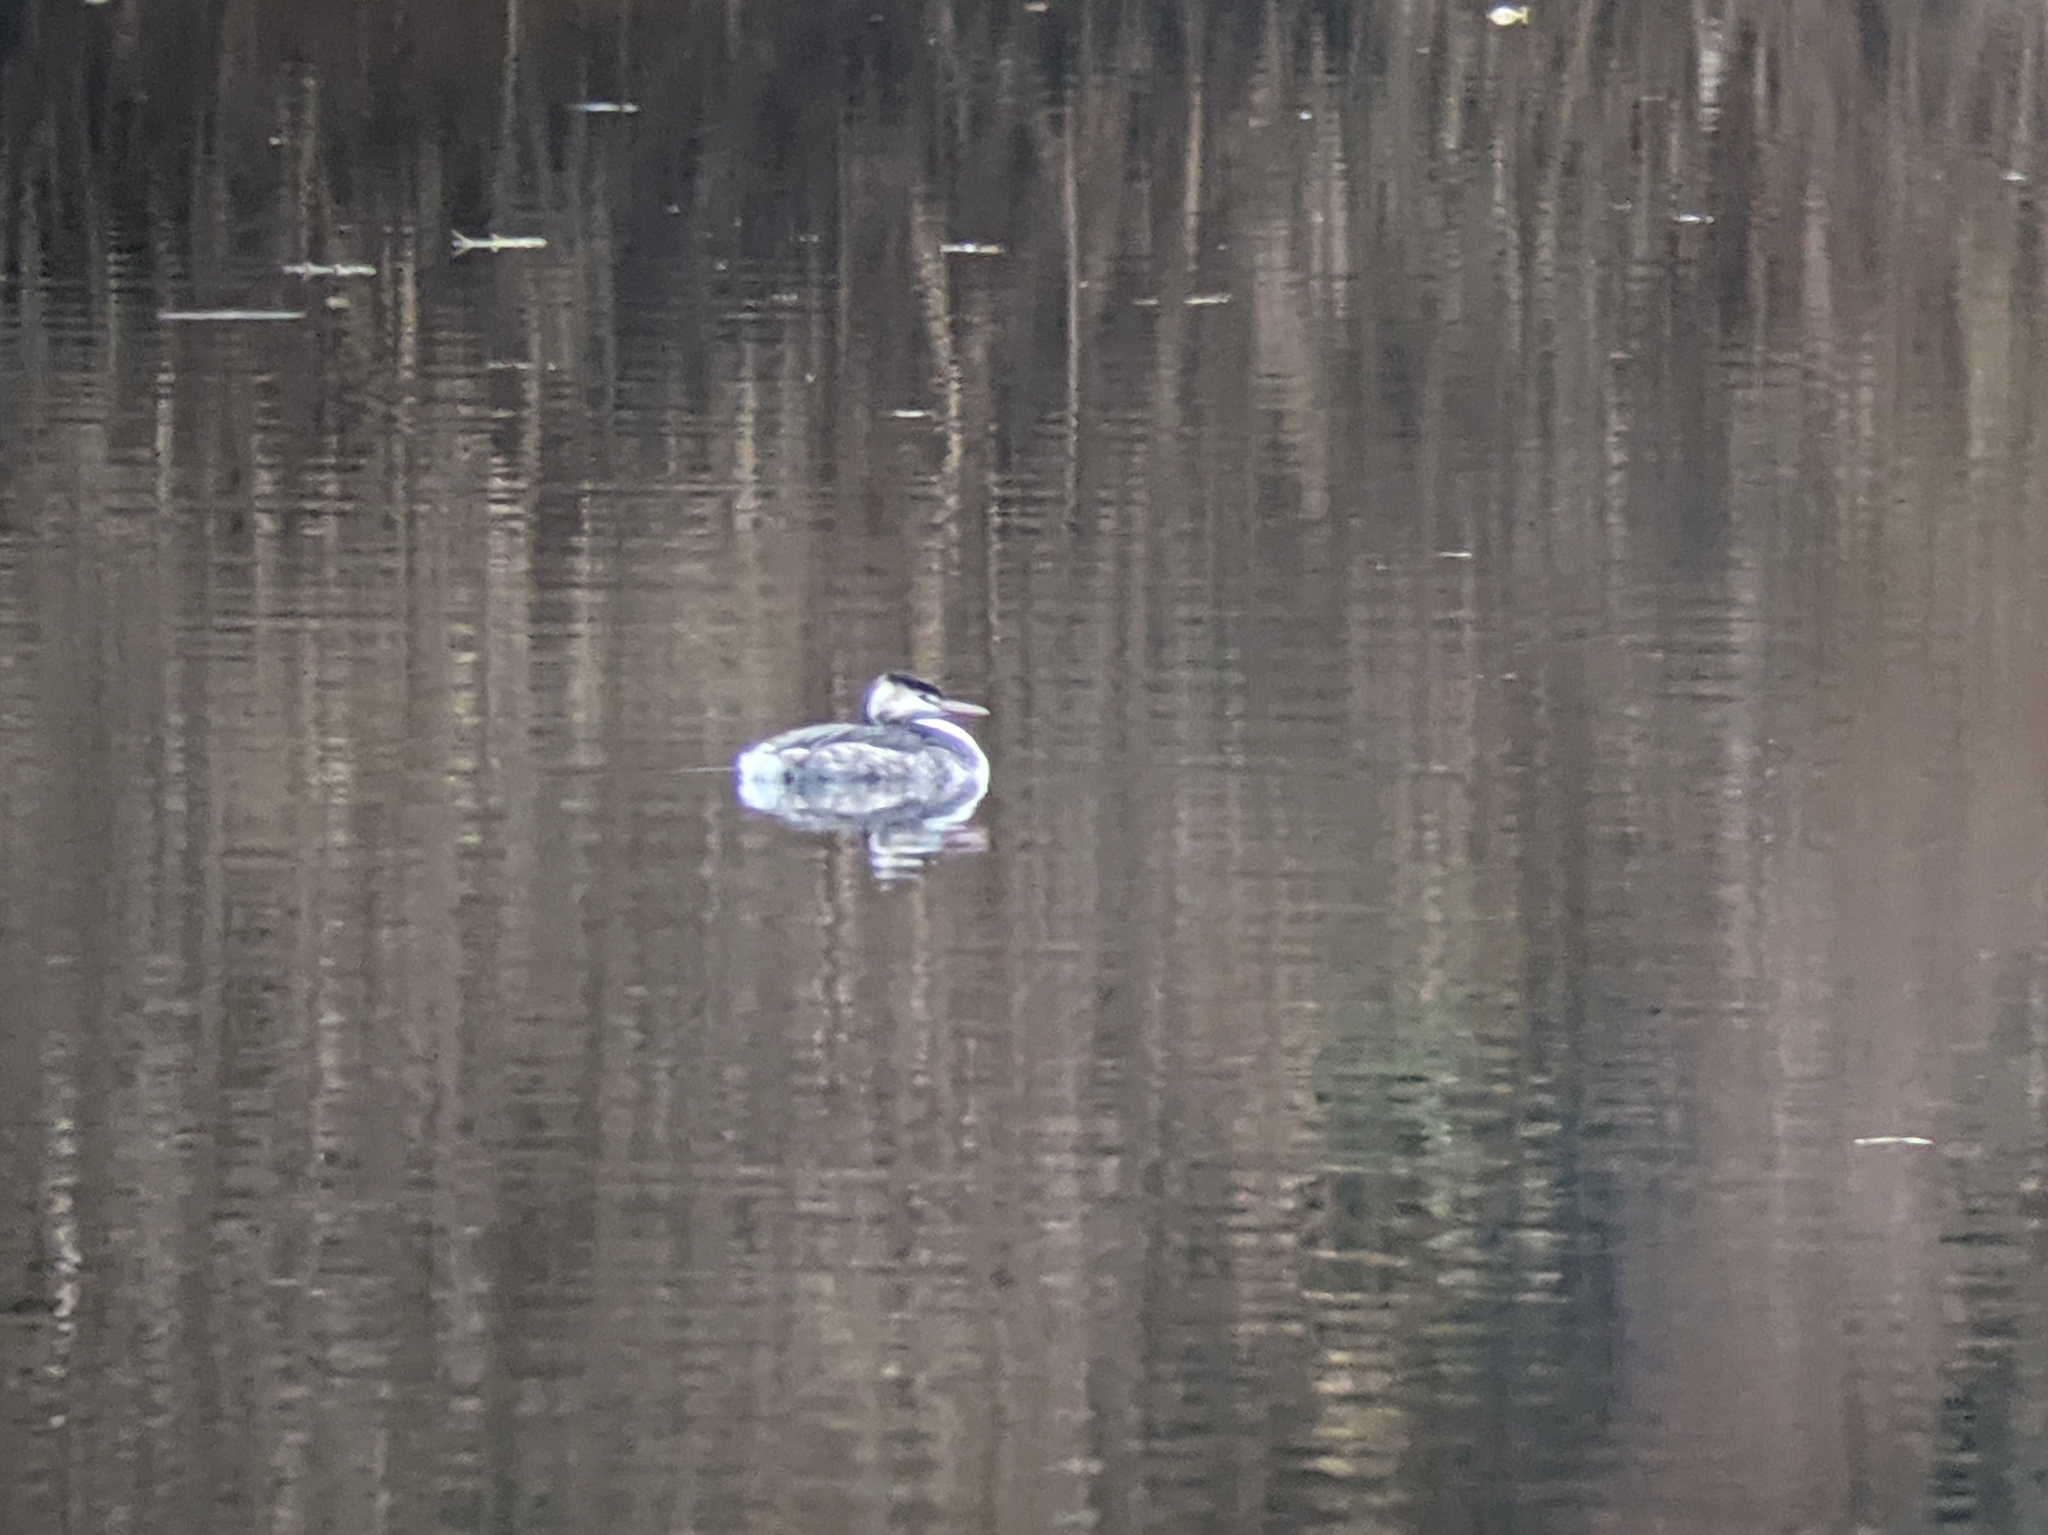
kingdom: Animalia
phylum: Chordata
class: Aves
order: Podicipediformes
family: Podicipedidae
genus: Podiceps
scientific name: Podiceps cristatus
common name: Great crested grebe
